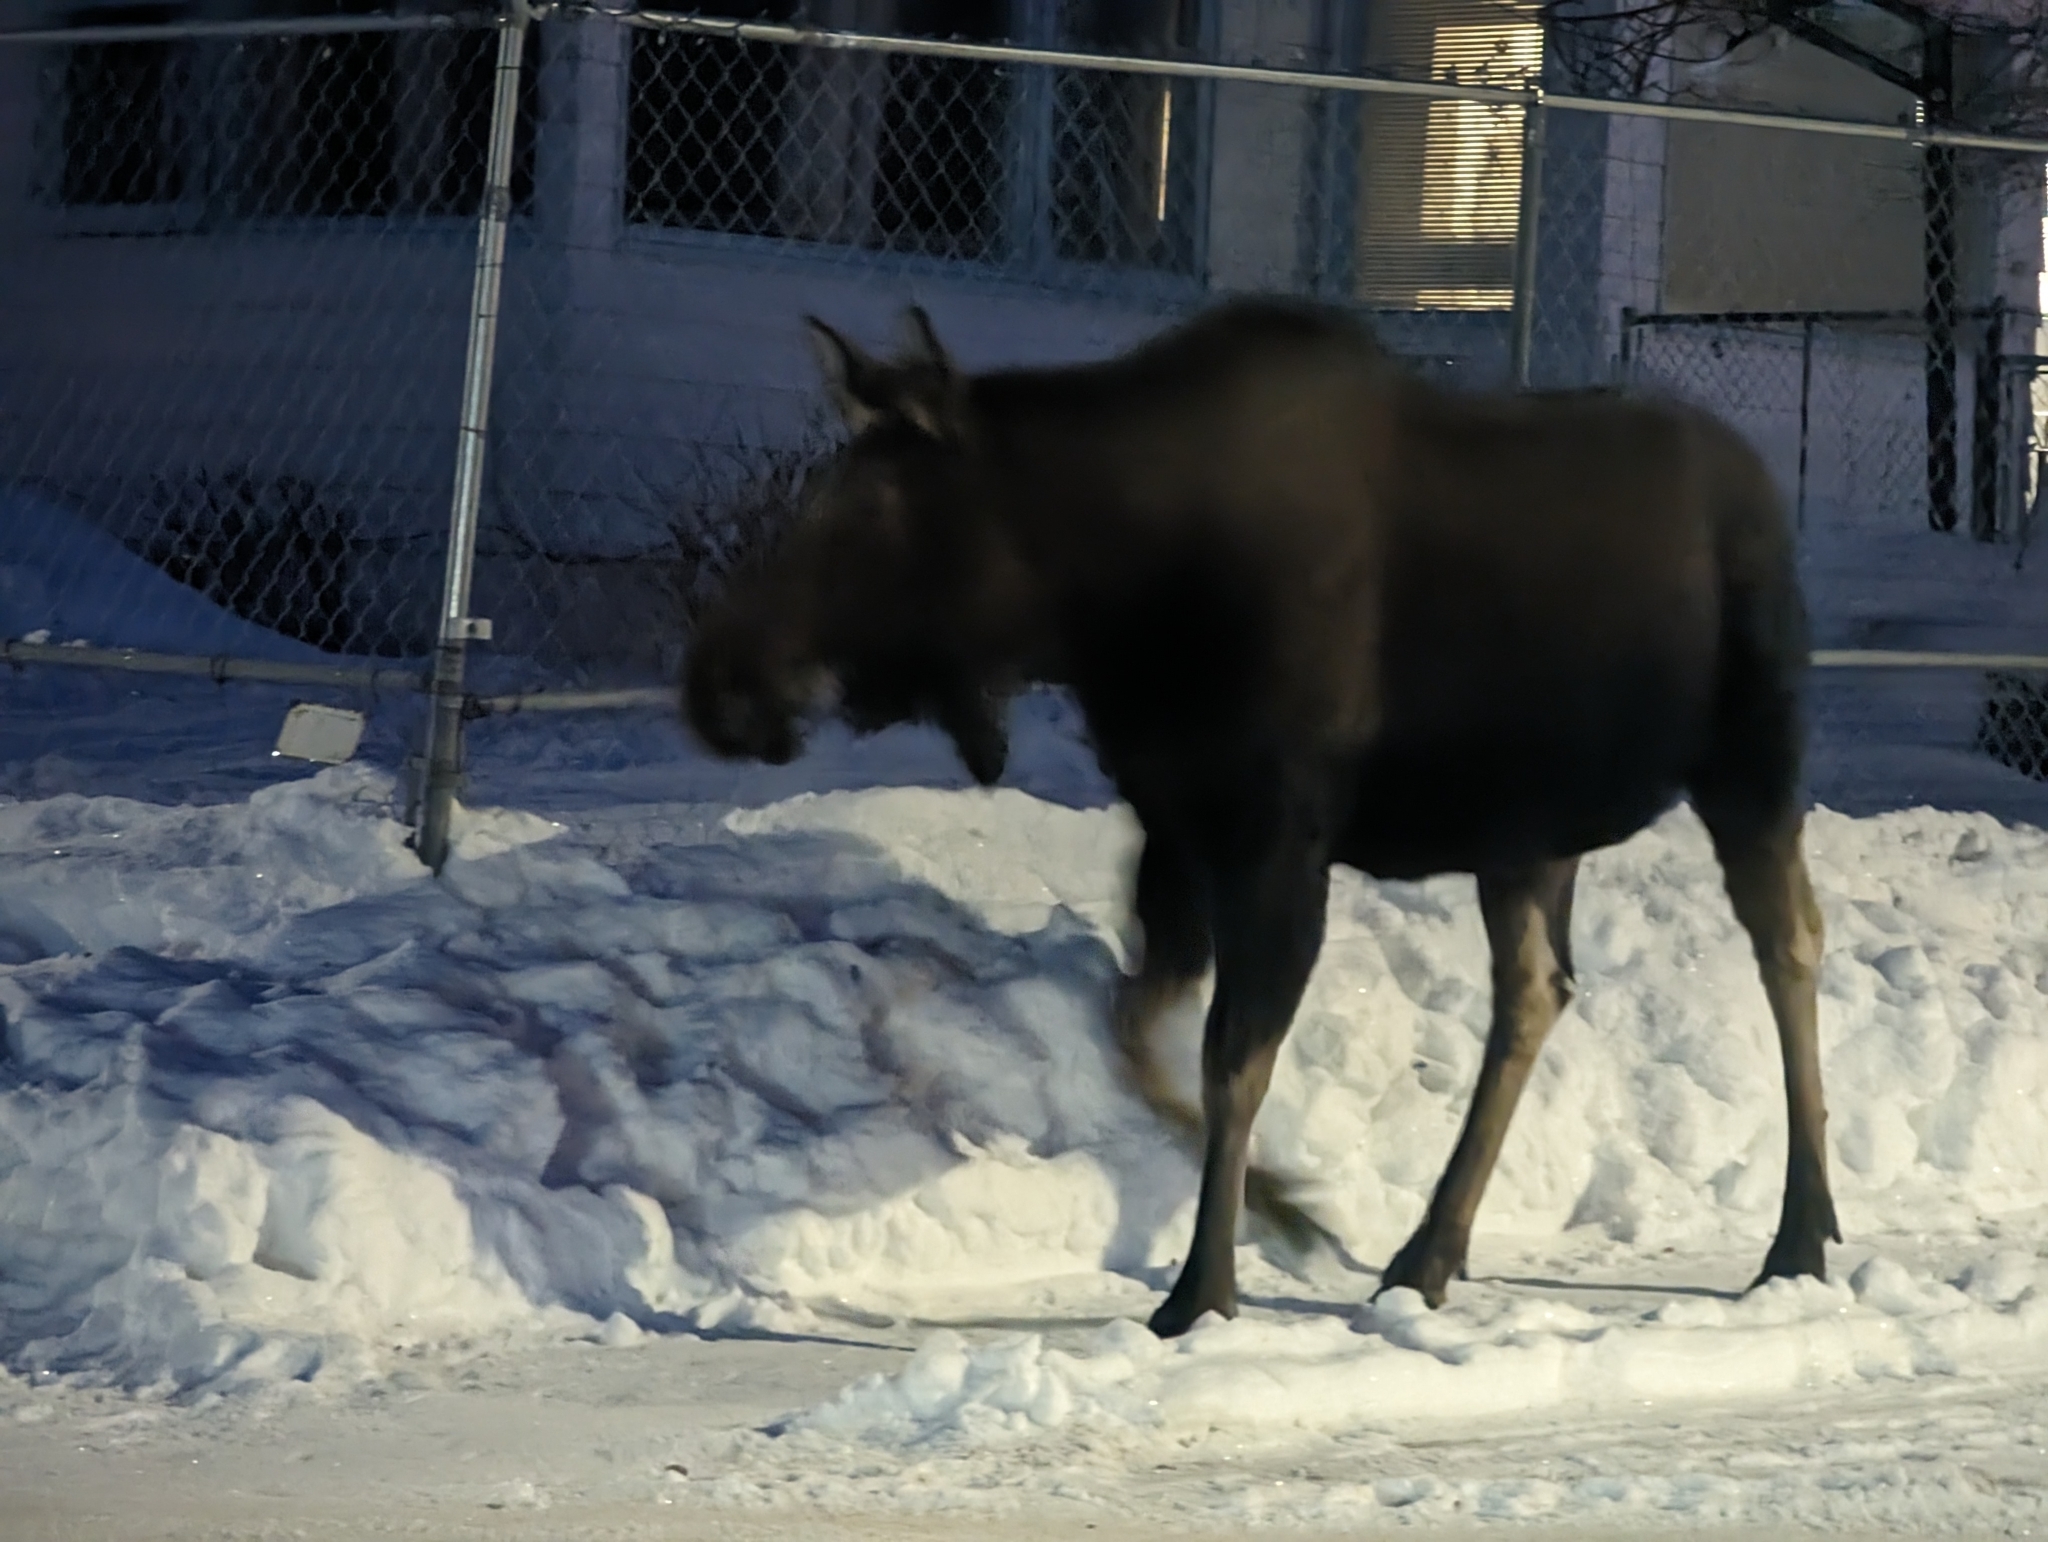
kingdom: Animalia
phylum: Chordata
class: Mammalia
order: Artiodactyla
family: Cervidae
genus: Alces
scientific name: Alces alces
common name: Moose
